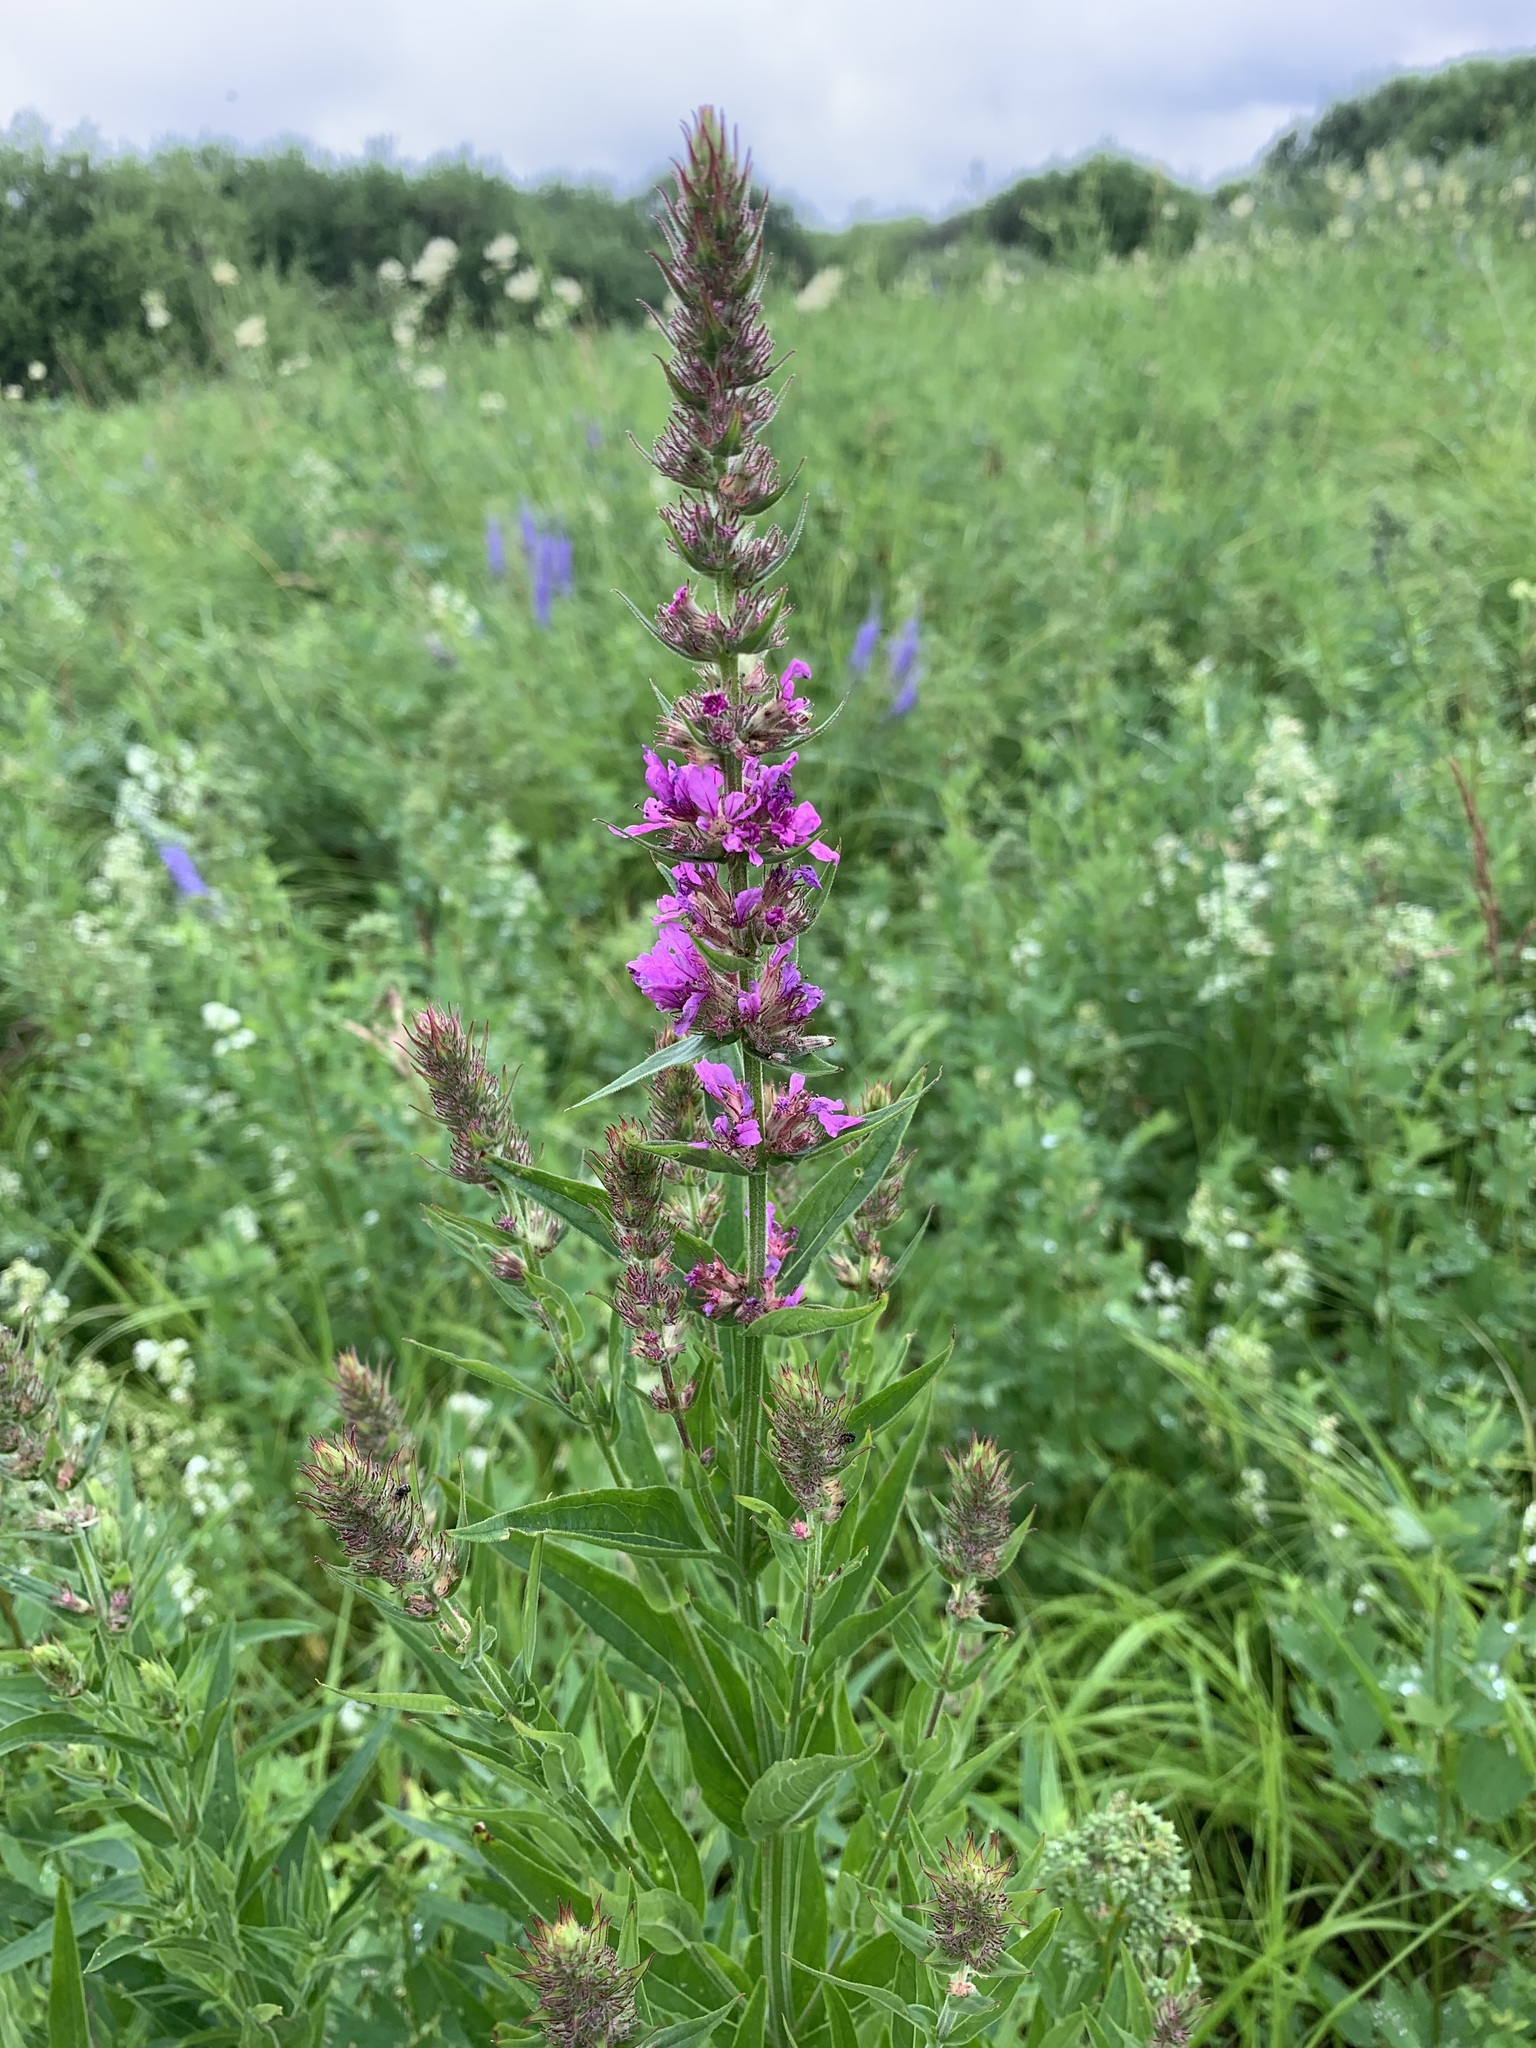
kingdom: Plantae
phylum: Tracheophyta
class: Magnoliopsida
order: Myrtales
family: Lythraceae
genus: Lythrum
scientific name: Lythrum salicaria
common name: Purple loosestrife
